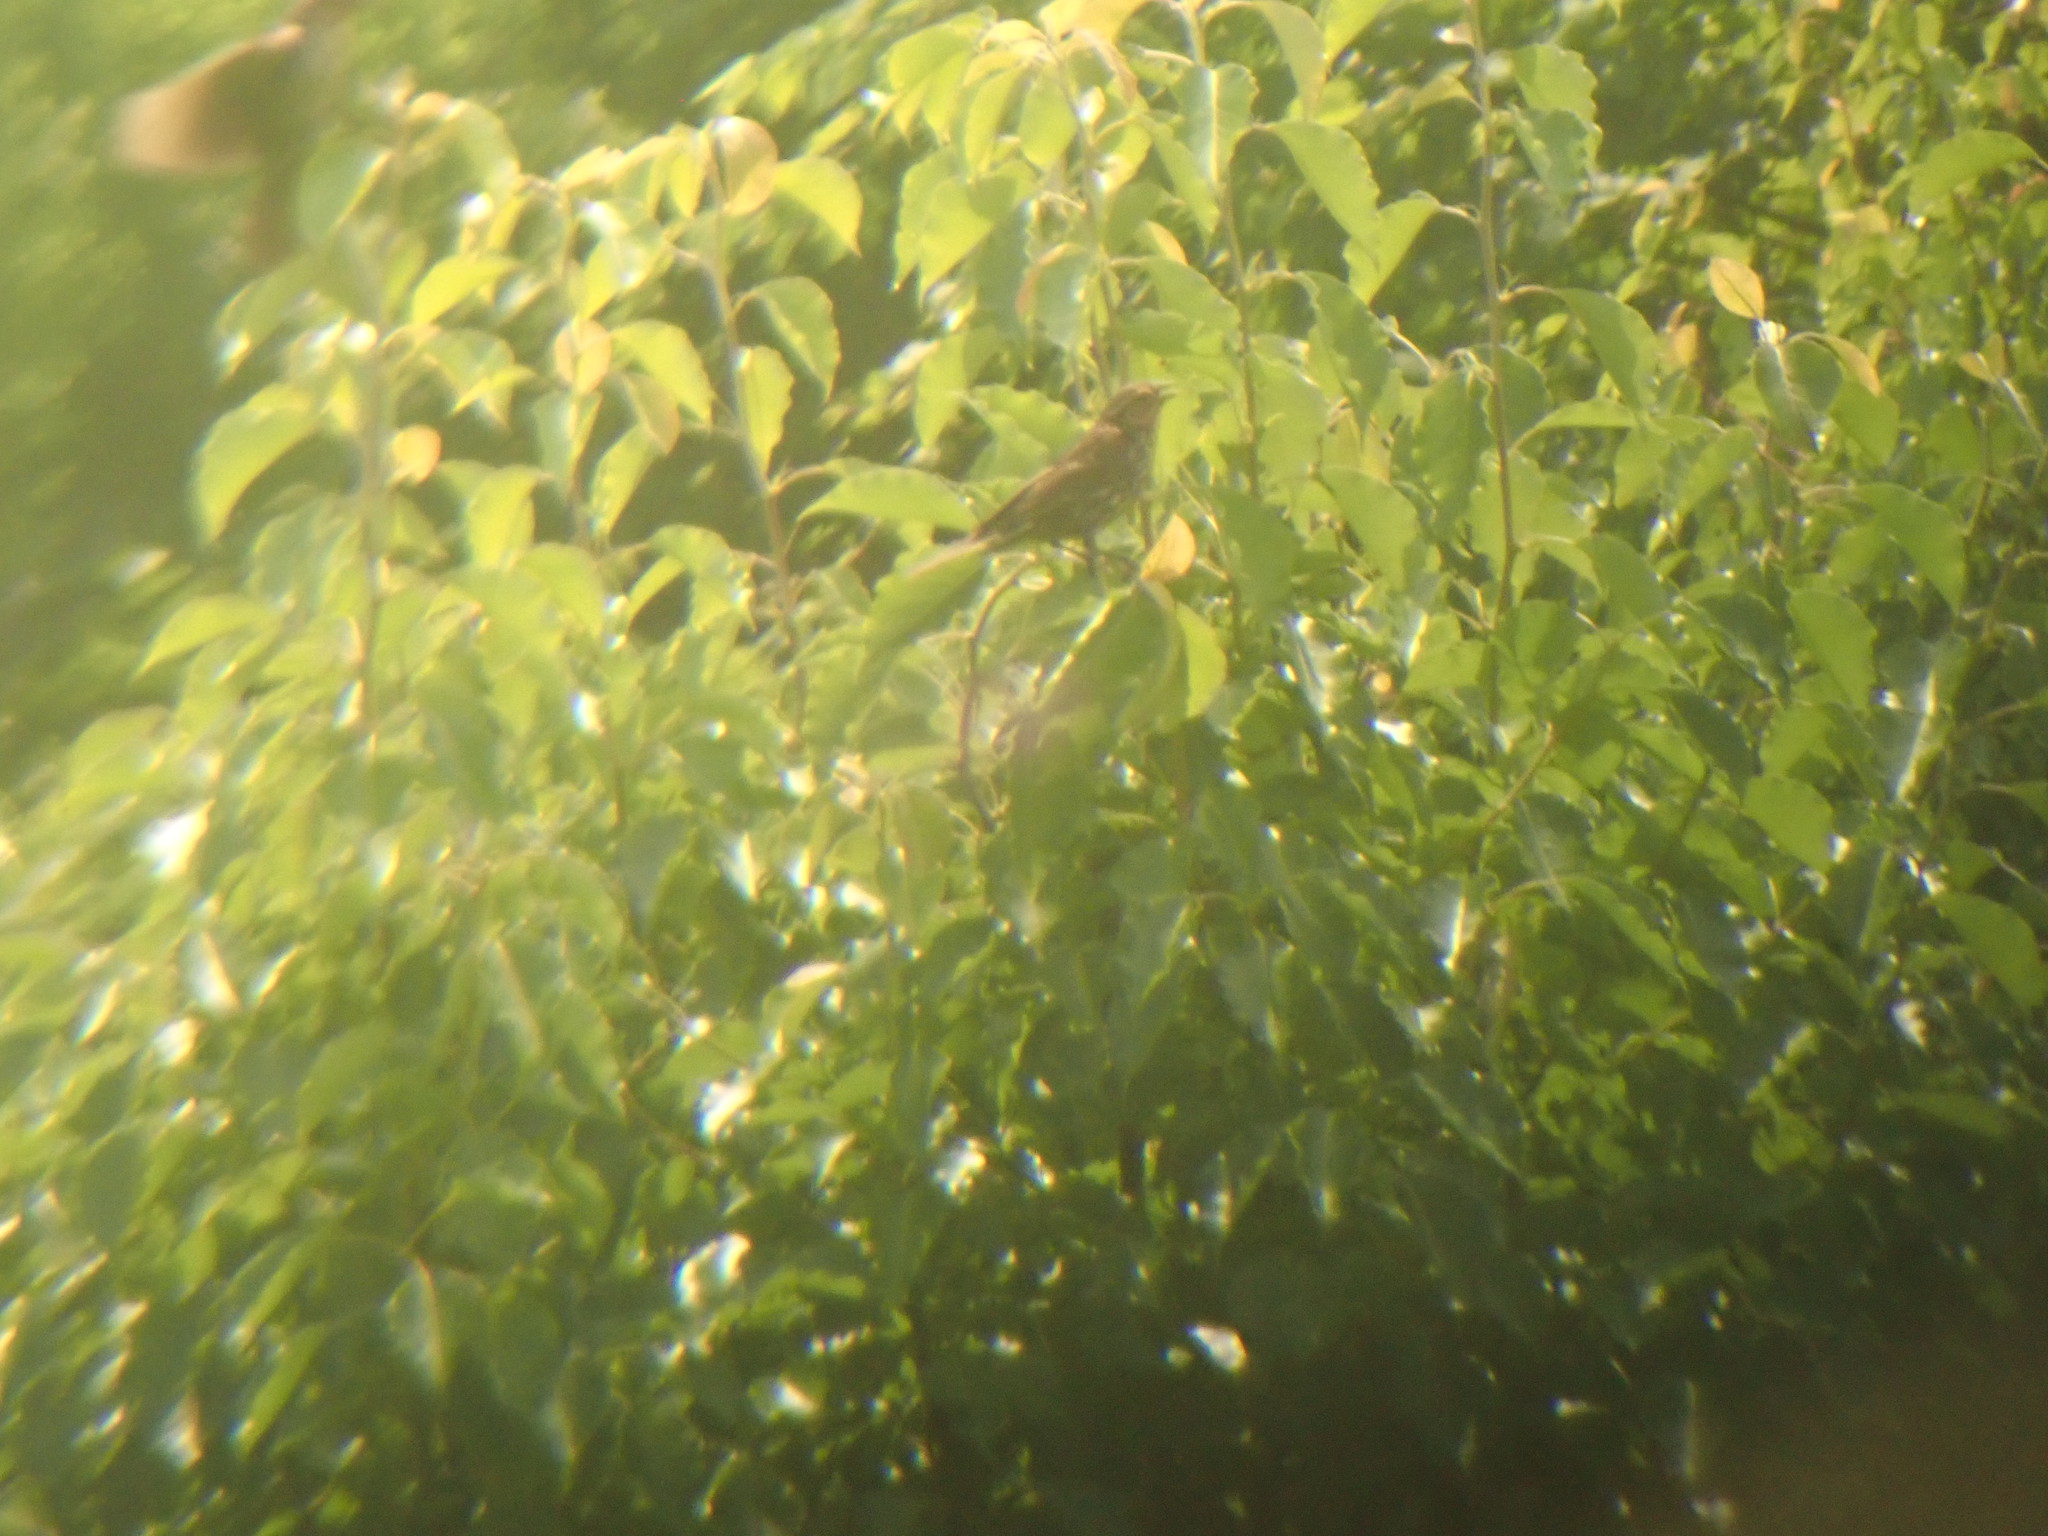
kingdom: Animalia
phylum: Chordata
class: Aves
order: Passeriformes
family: Icteridae
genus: Agelaius
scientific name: Agelaius phoeniceus
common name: Red-winged blackbird
